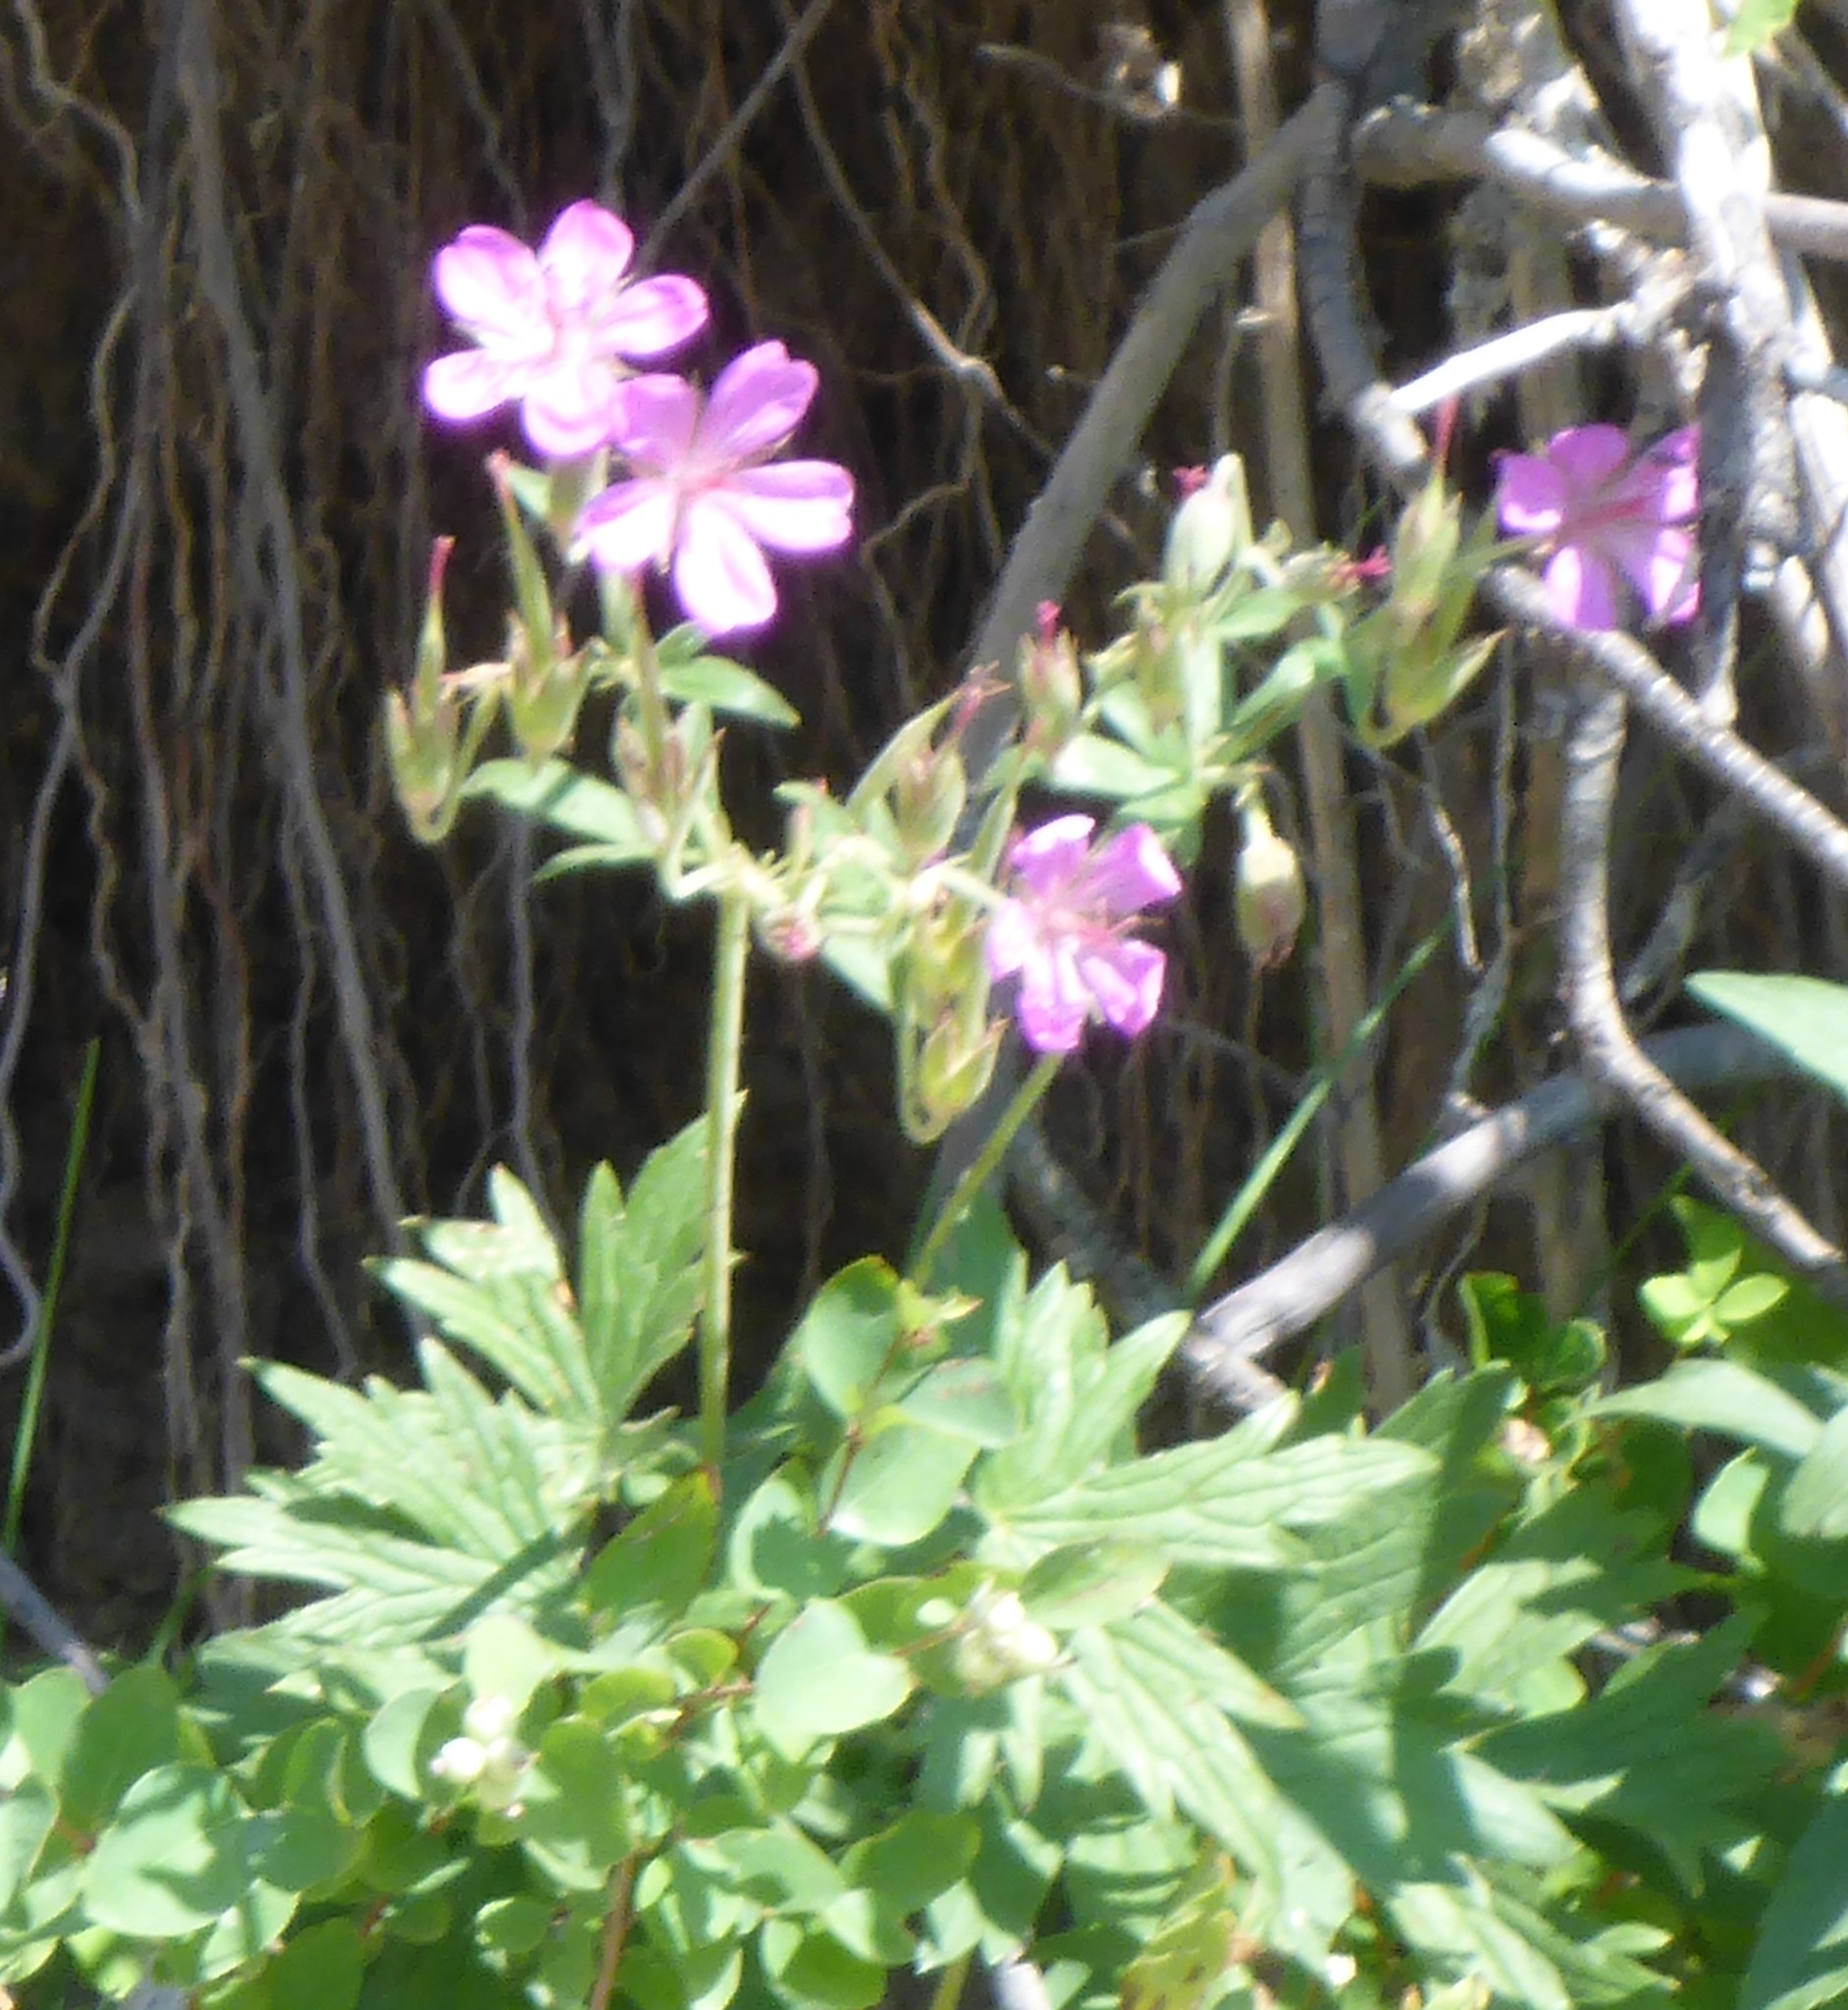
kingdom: Plantae
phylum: Tracheophyta
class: Magnoliopsida
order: Geraniales
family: Geraniaceae
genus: Geranium
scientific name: Geranium viscosissimum
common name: Purple geranium
